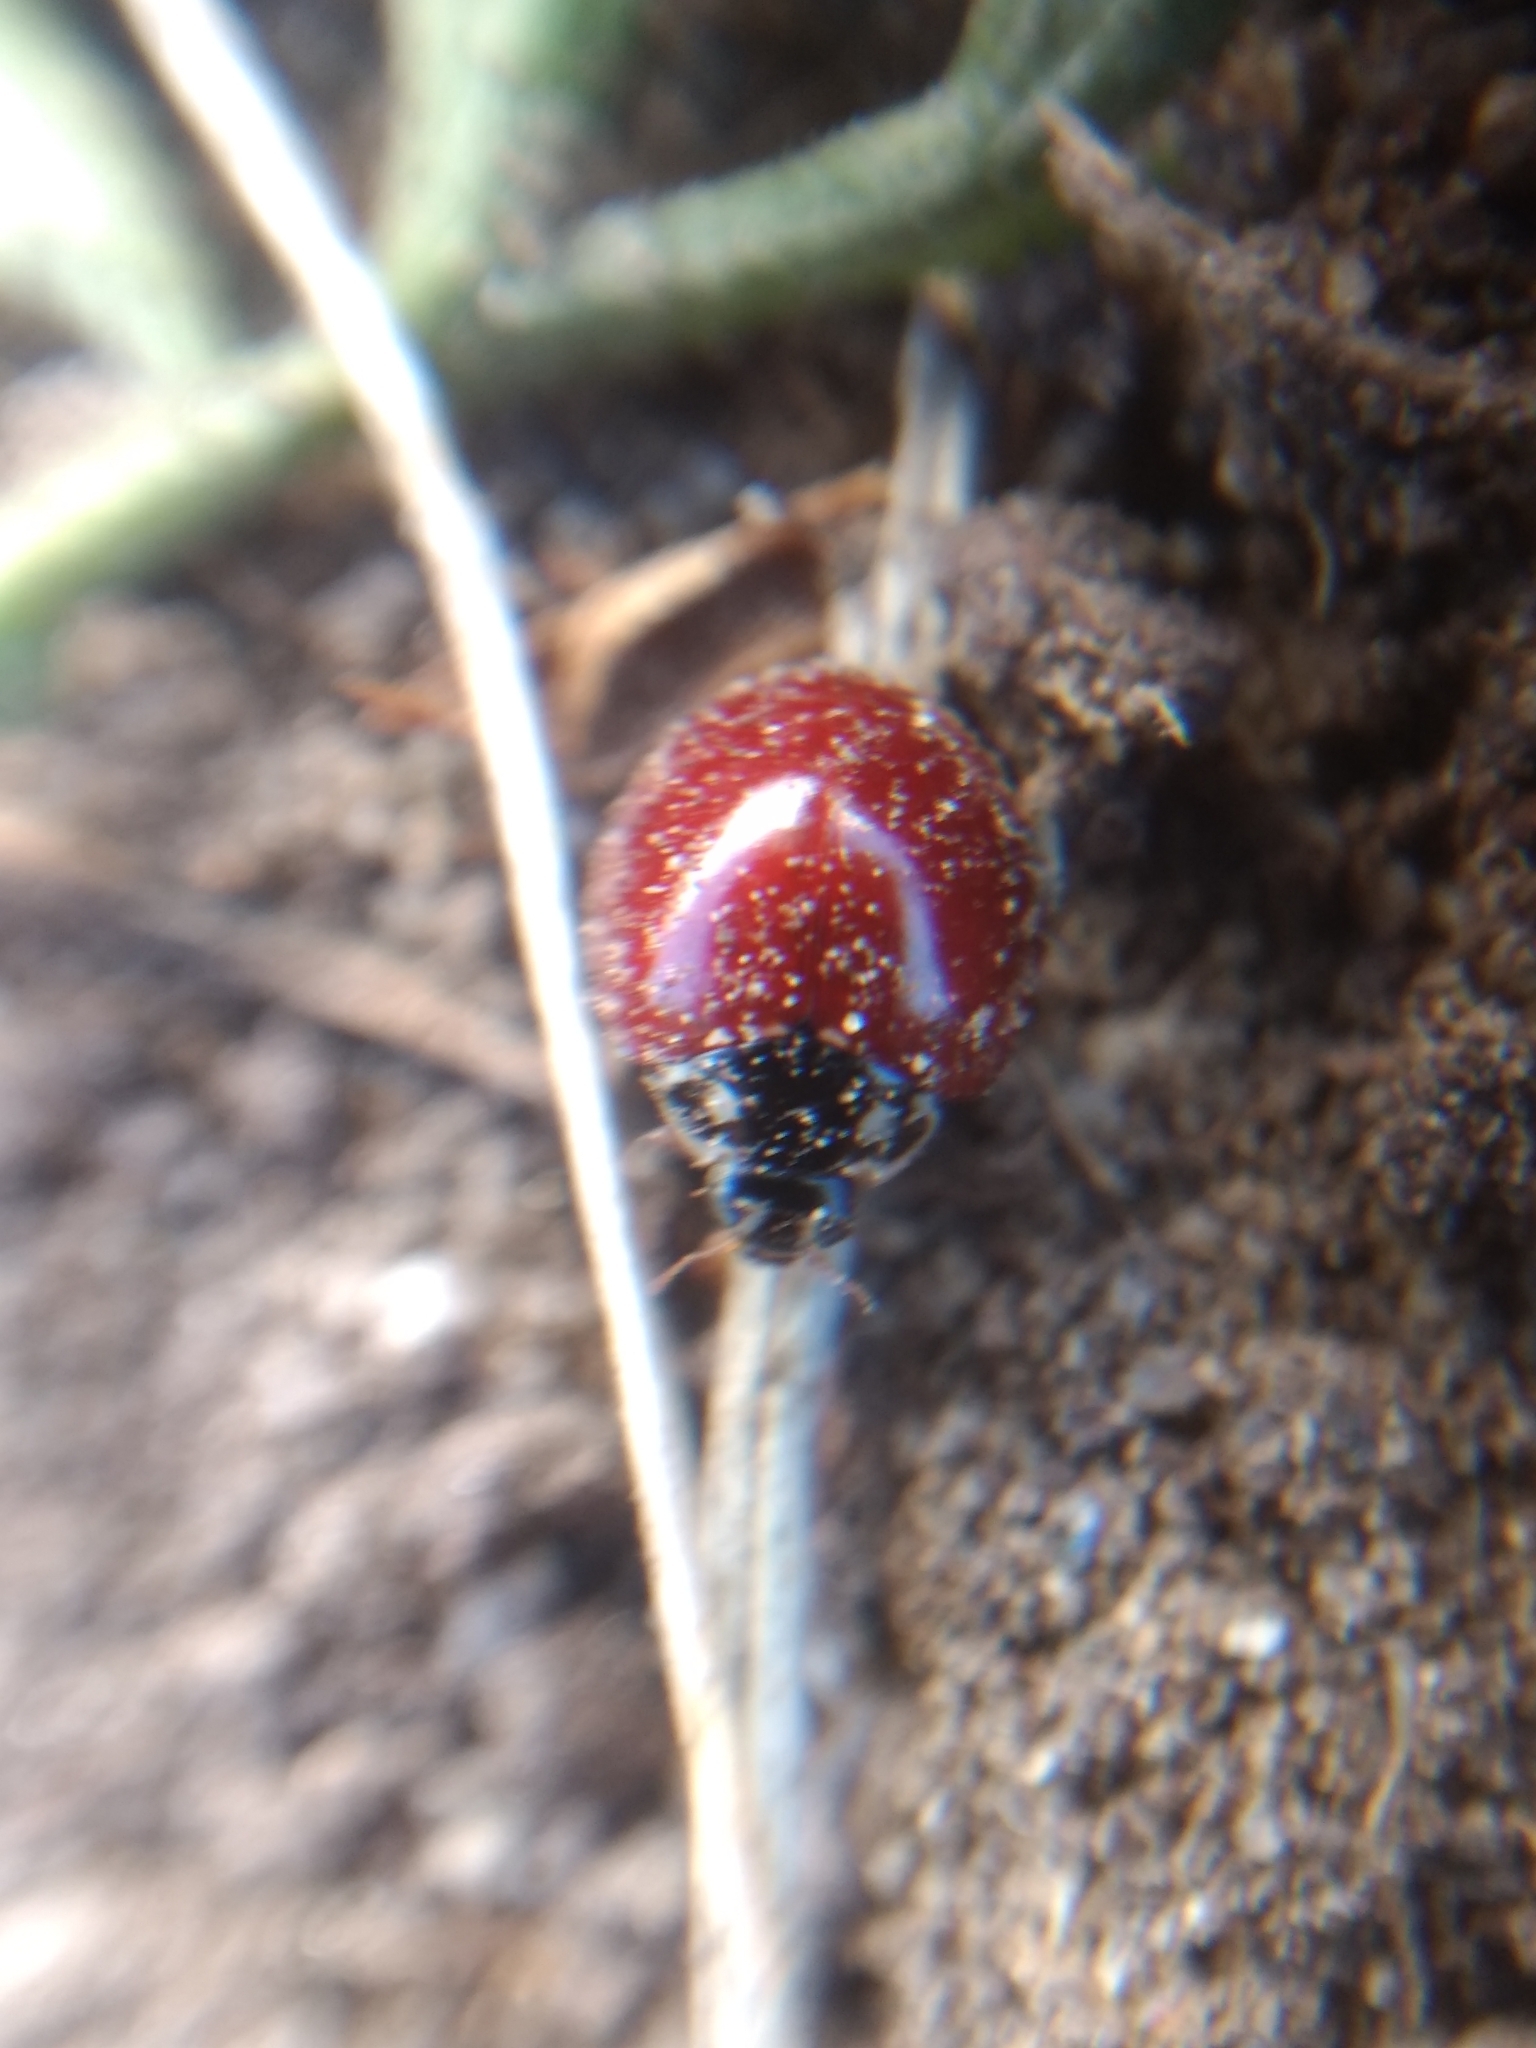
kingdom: Animalia
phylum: Arthropoda
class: Insecta
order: Coleoptera
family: Coccinellidae
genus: Cycloneda
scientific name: Cycloneda sanguinea
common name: Ladybird beetle
